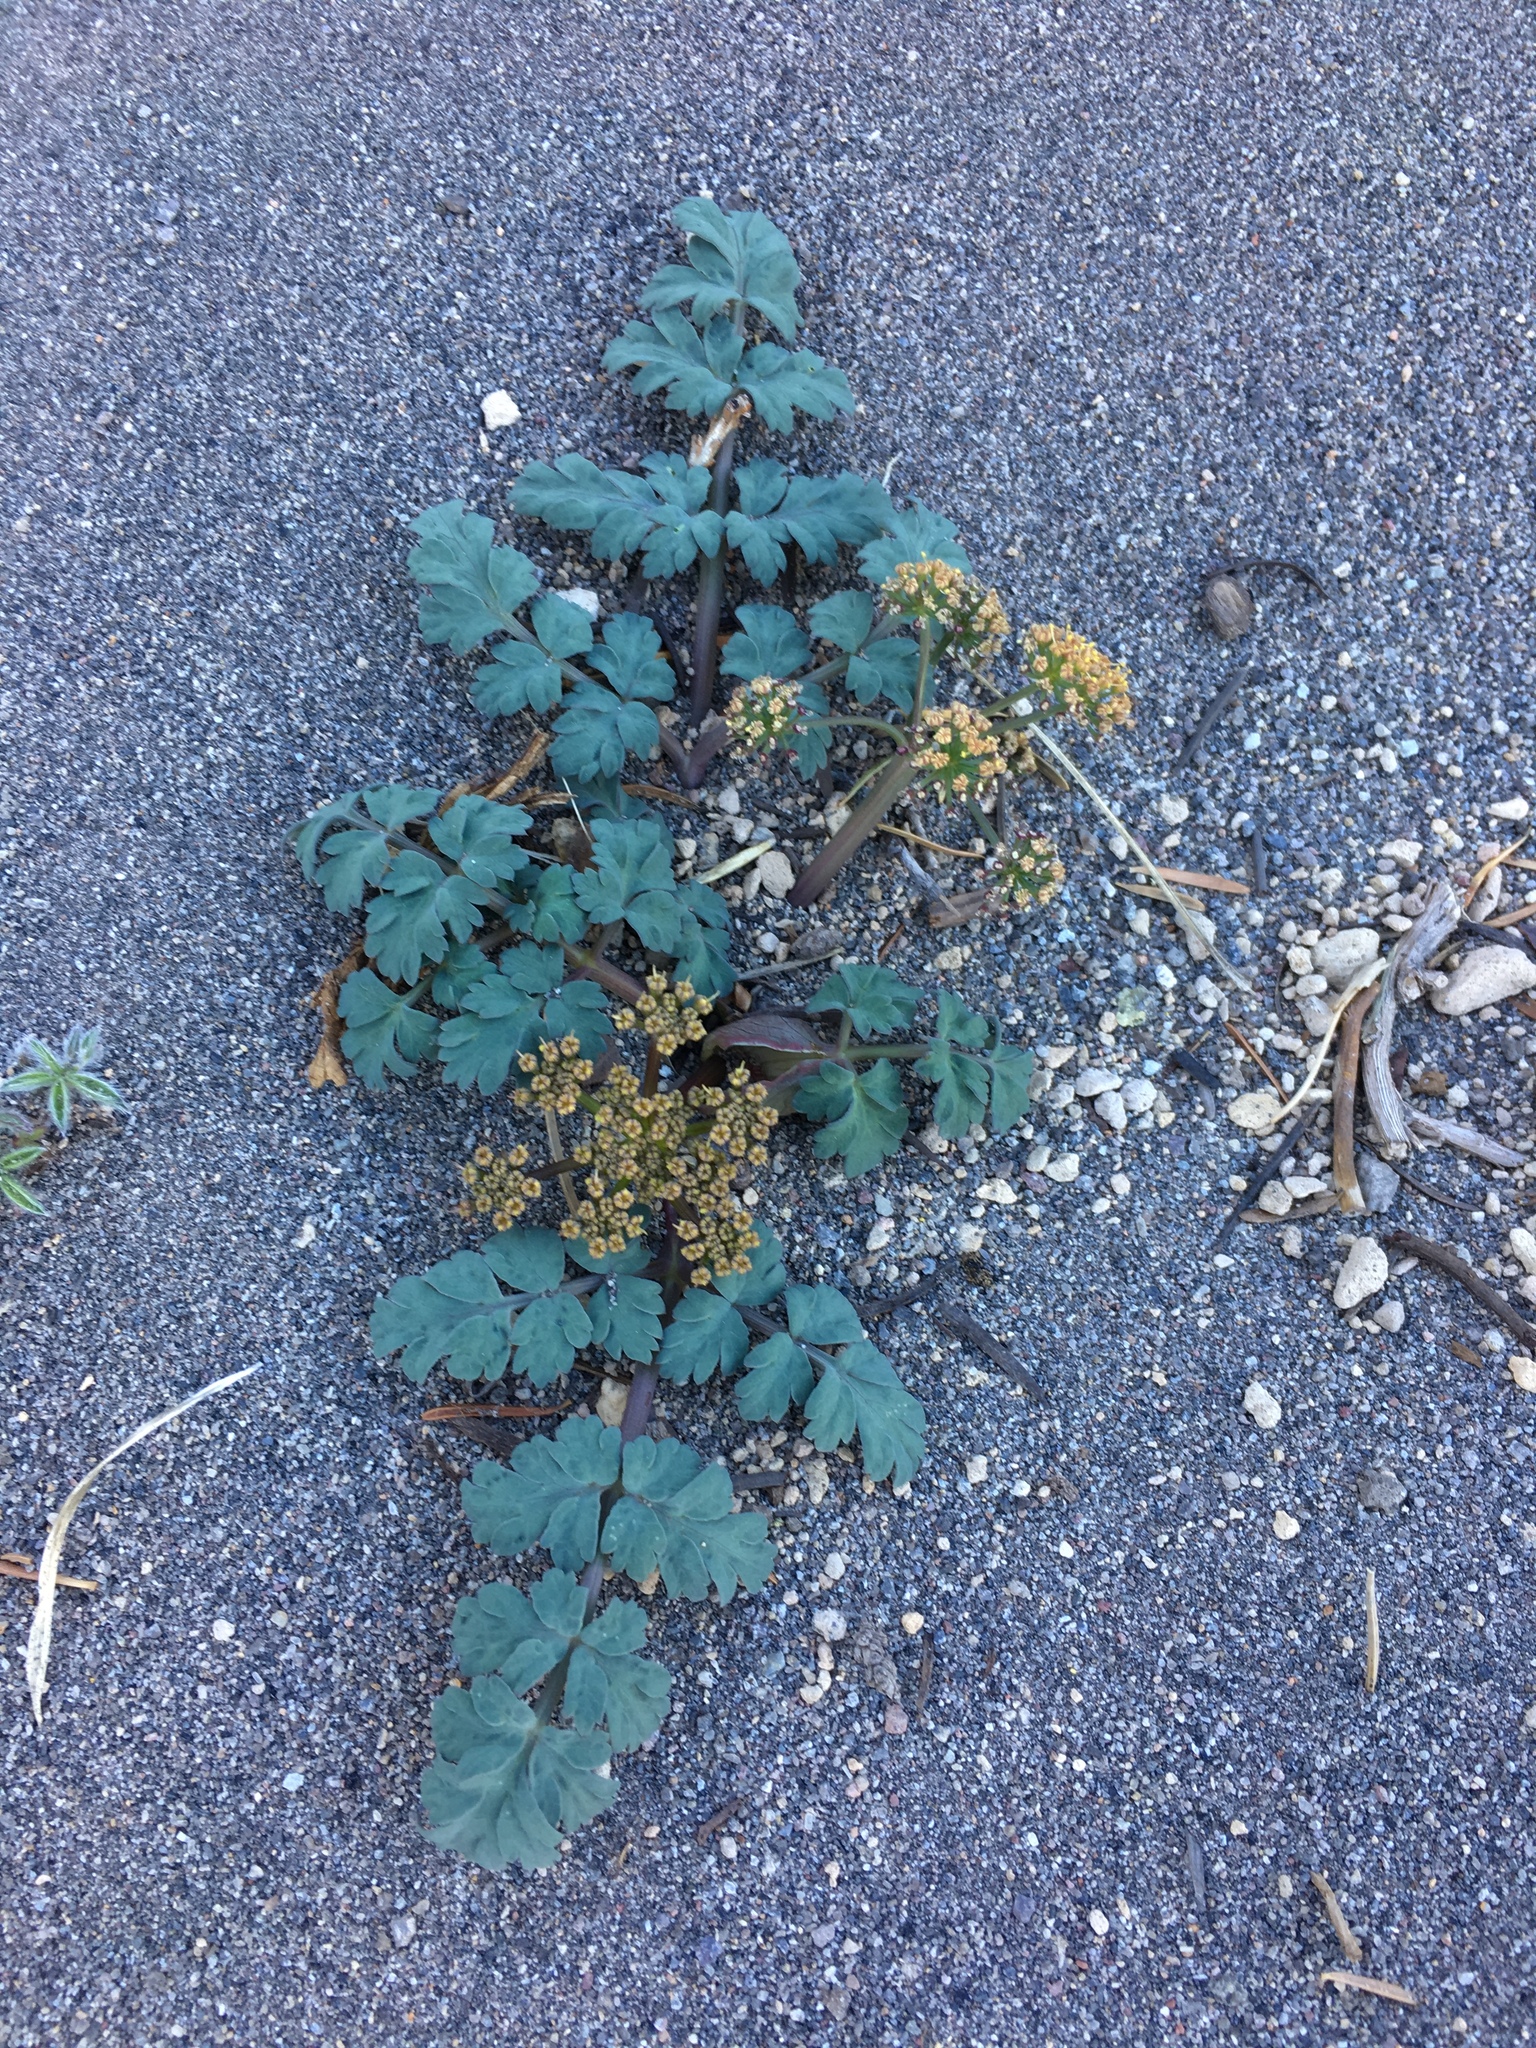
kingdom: Plantae
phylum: Tracheophyta
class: Magnoliopsida
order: Apiales
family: Apiaceae
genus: Lomatium
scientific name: Lomatium martindalei
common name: Cascade desert-parsley
